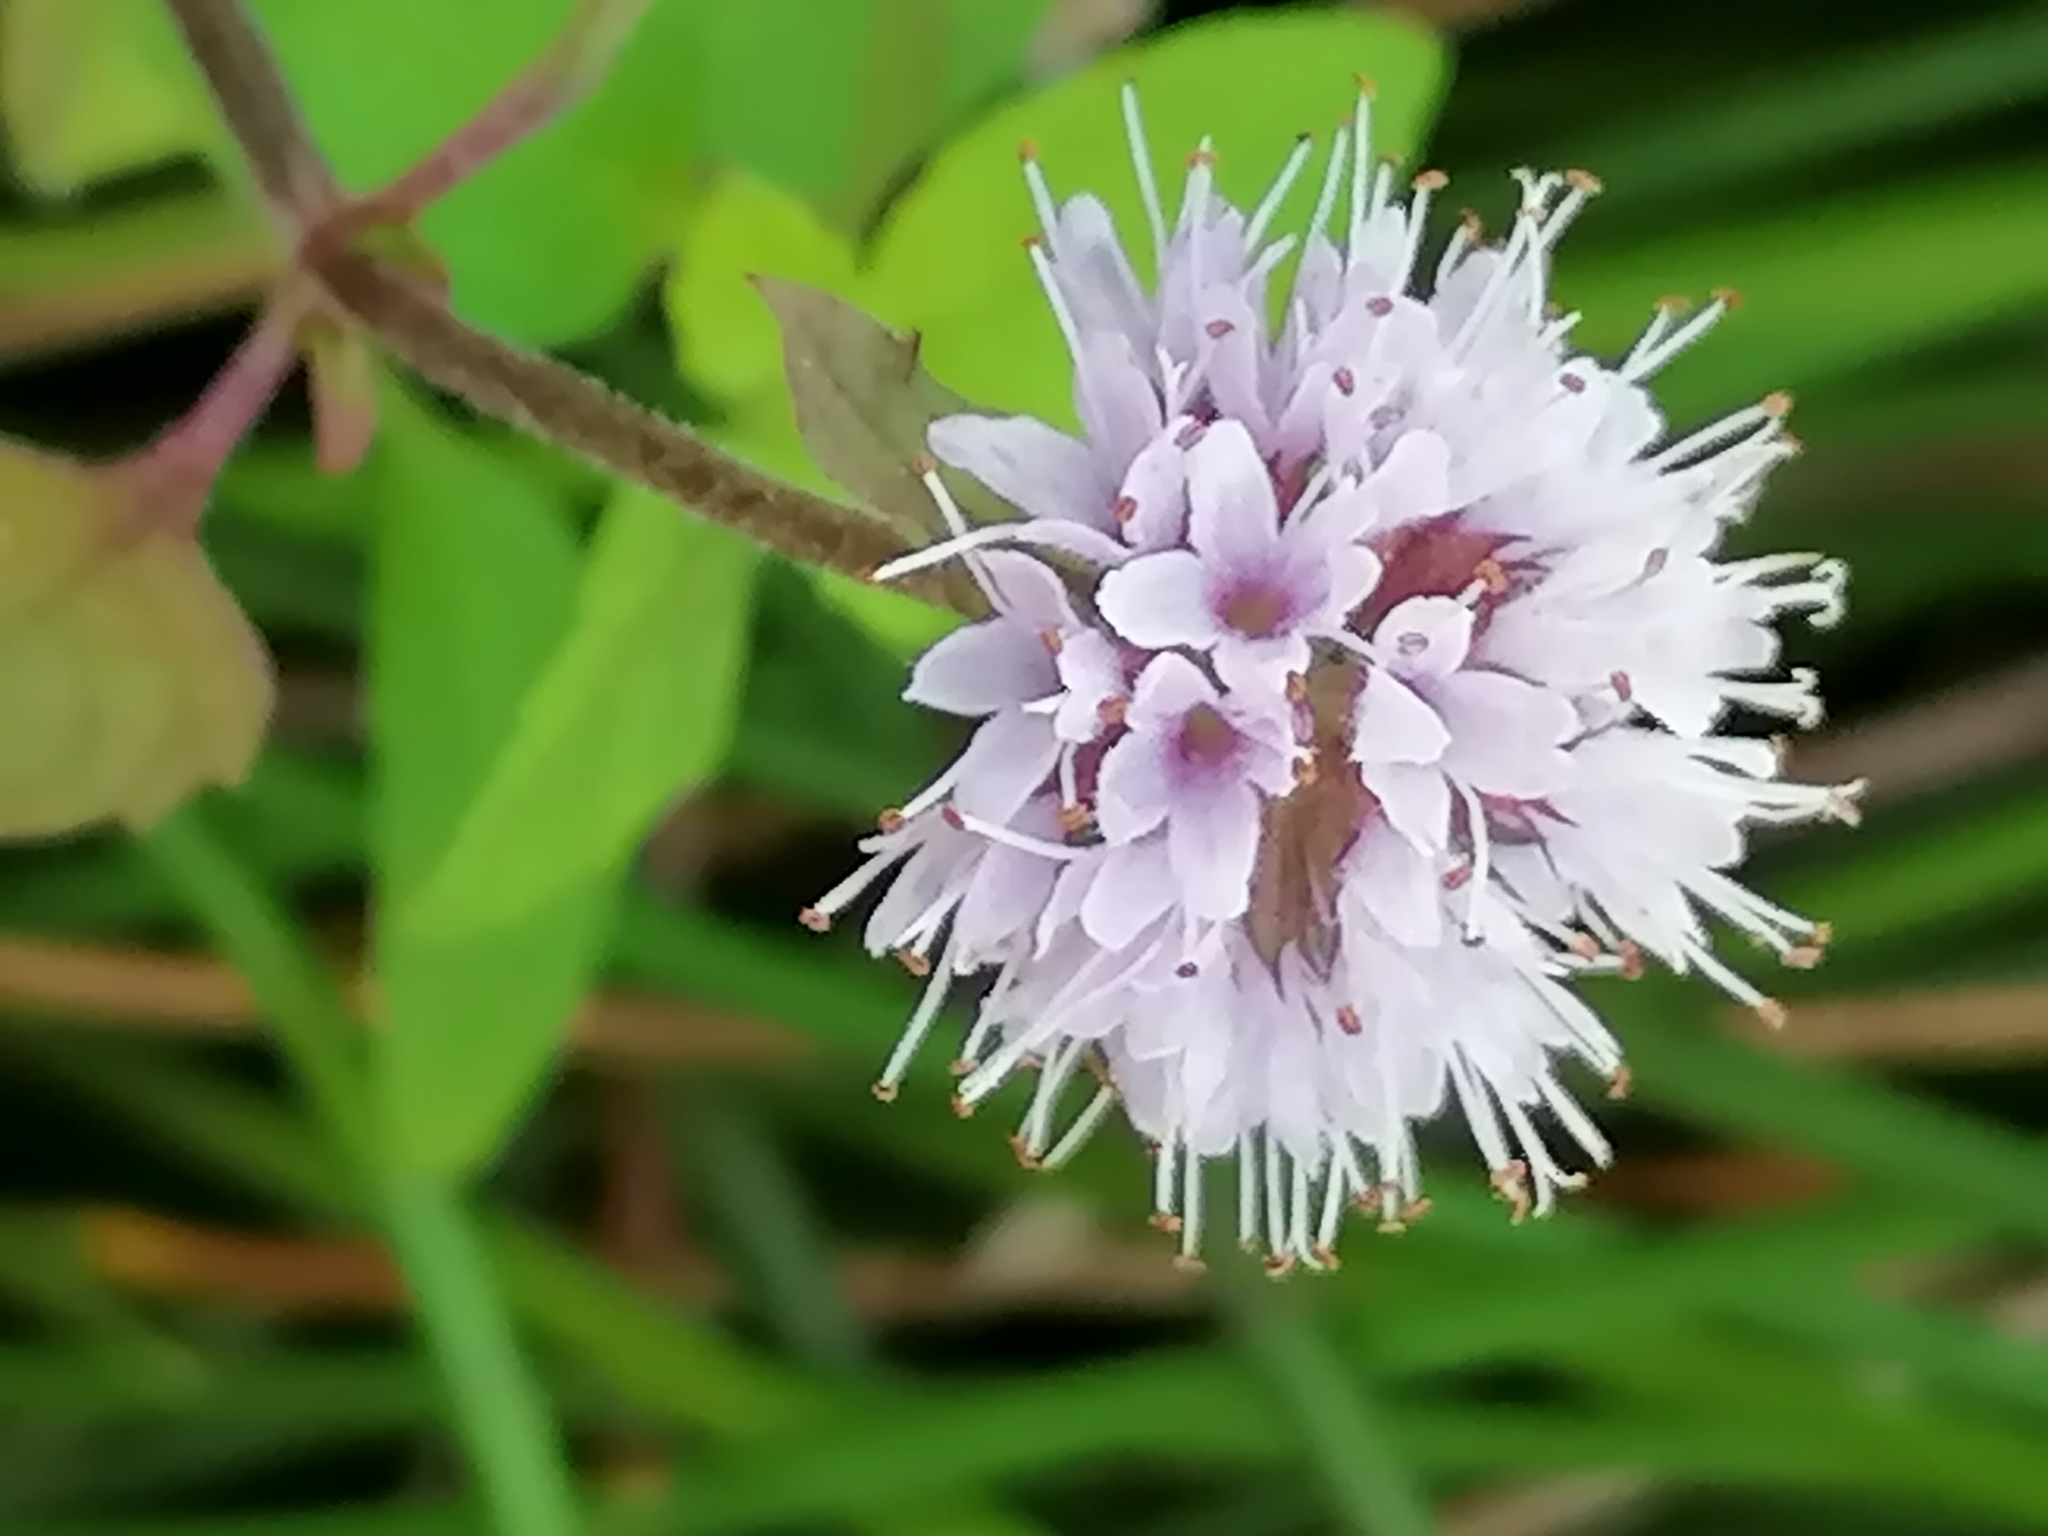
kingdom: Plantae
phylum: Tracheophyta
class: Magnoliopsida
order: Lamiales
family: Lamiaceae
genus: Mentha
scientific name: Mentha aquatica
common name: Water mint
